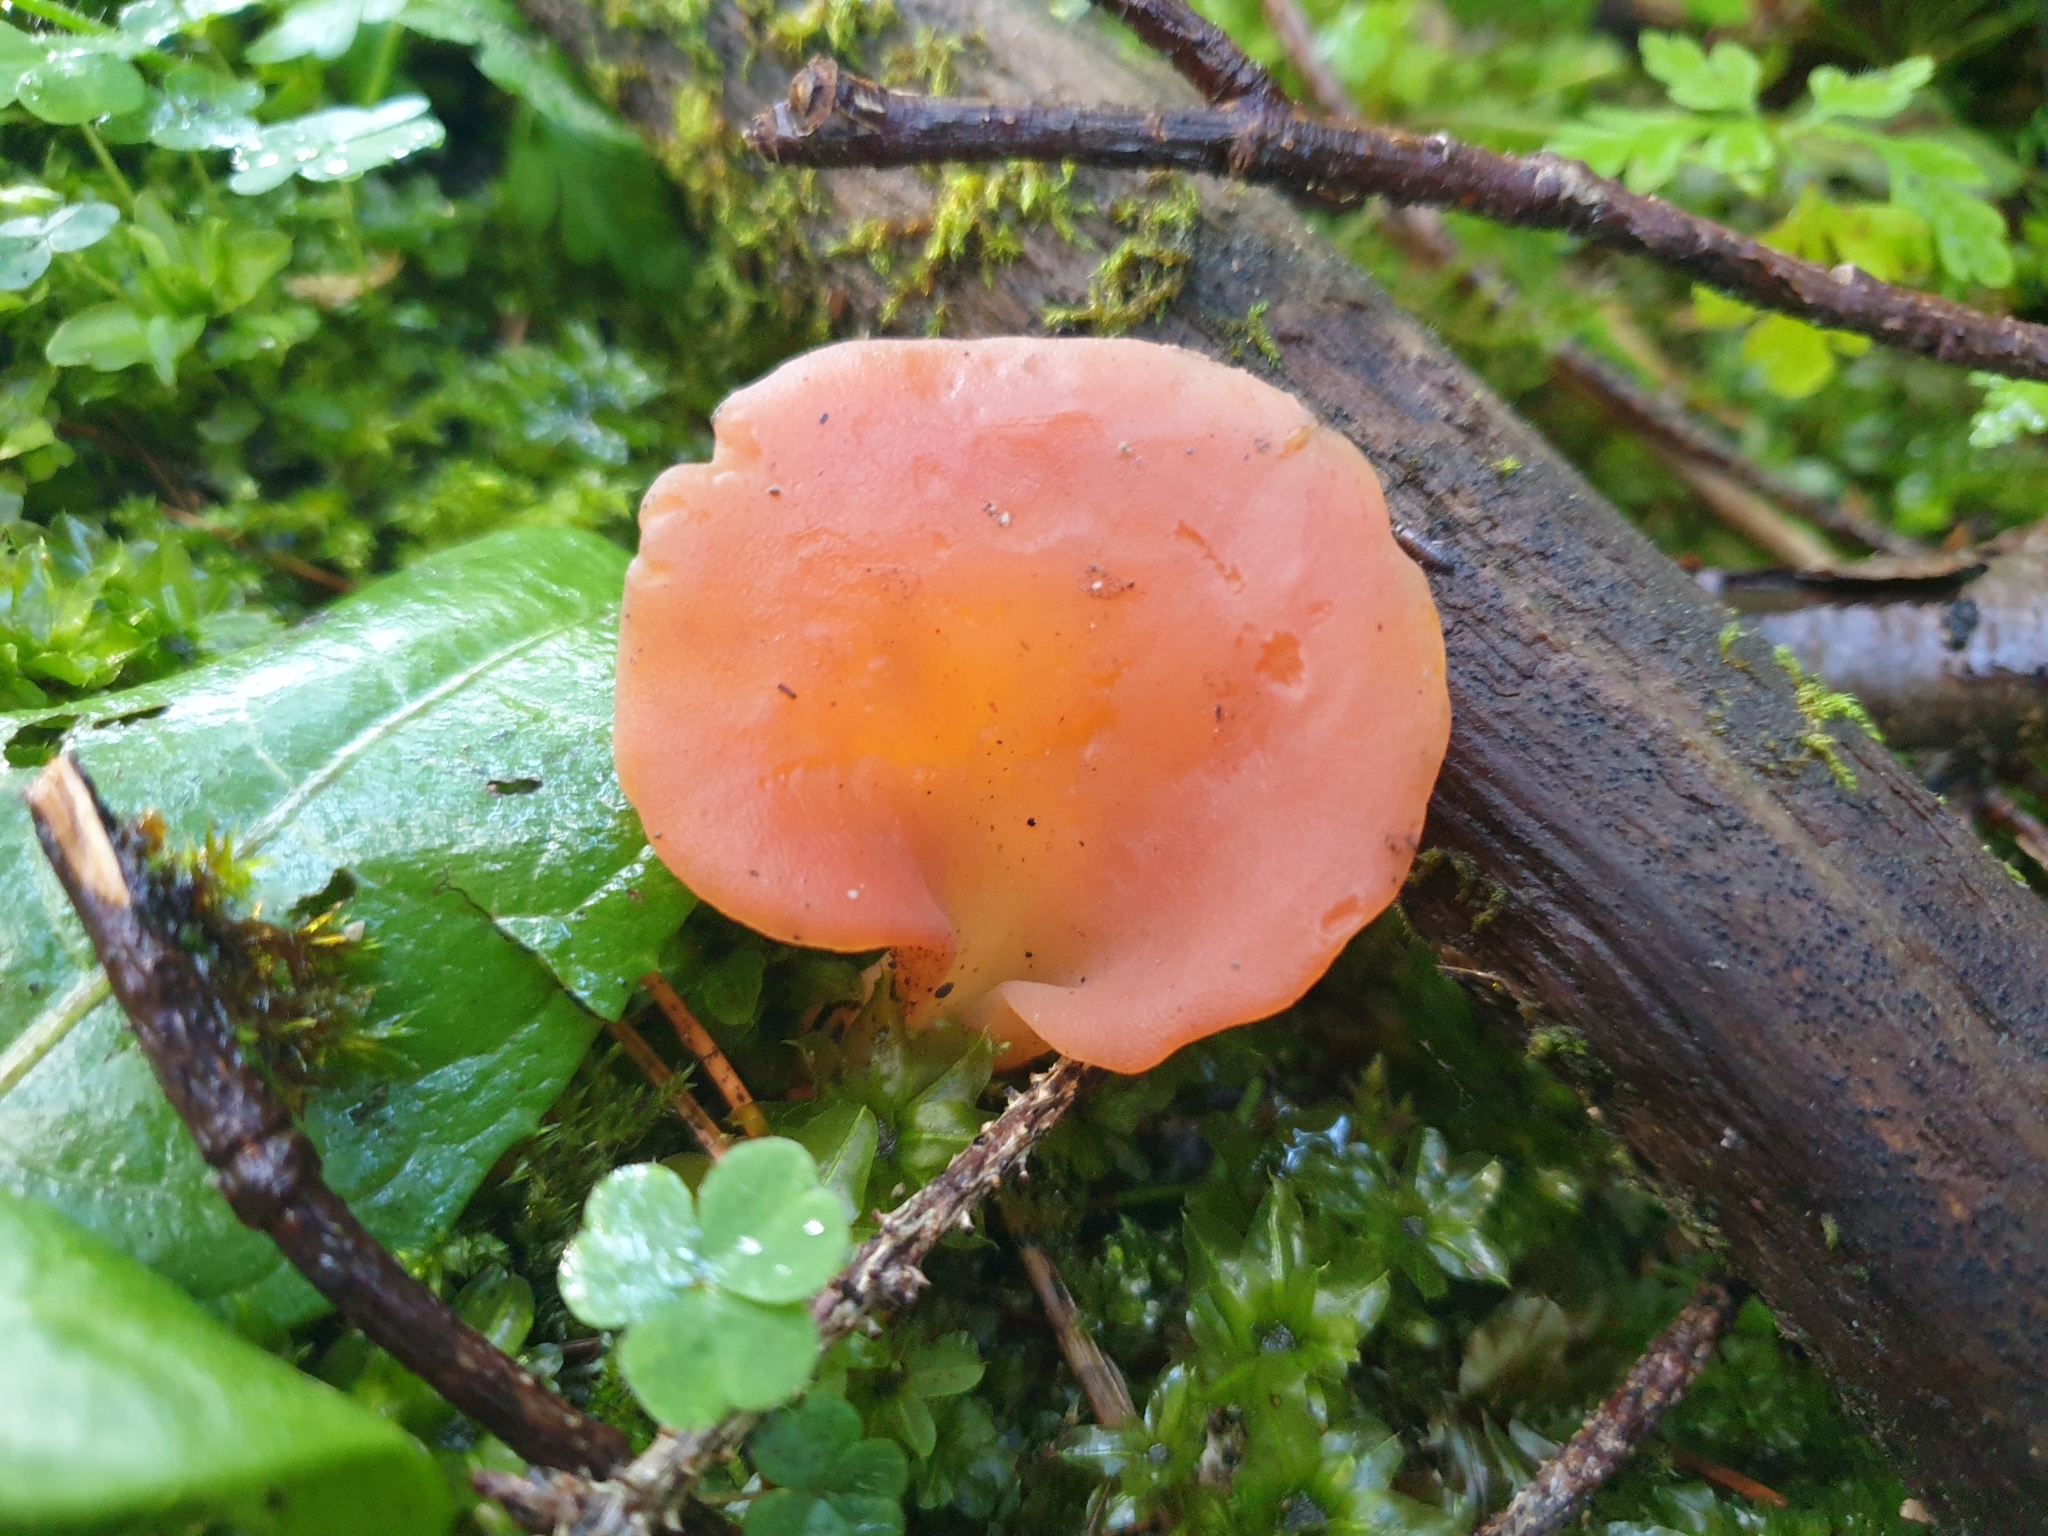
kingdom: Fungi
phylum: Basidiomycota
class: Agaricomycetes
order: Auriculariales
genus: Guepinia
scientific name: Guepinia helvelloides
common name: Salmon salad
